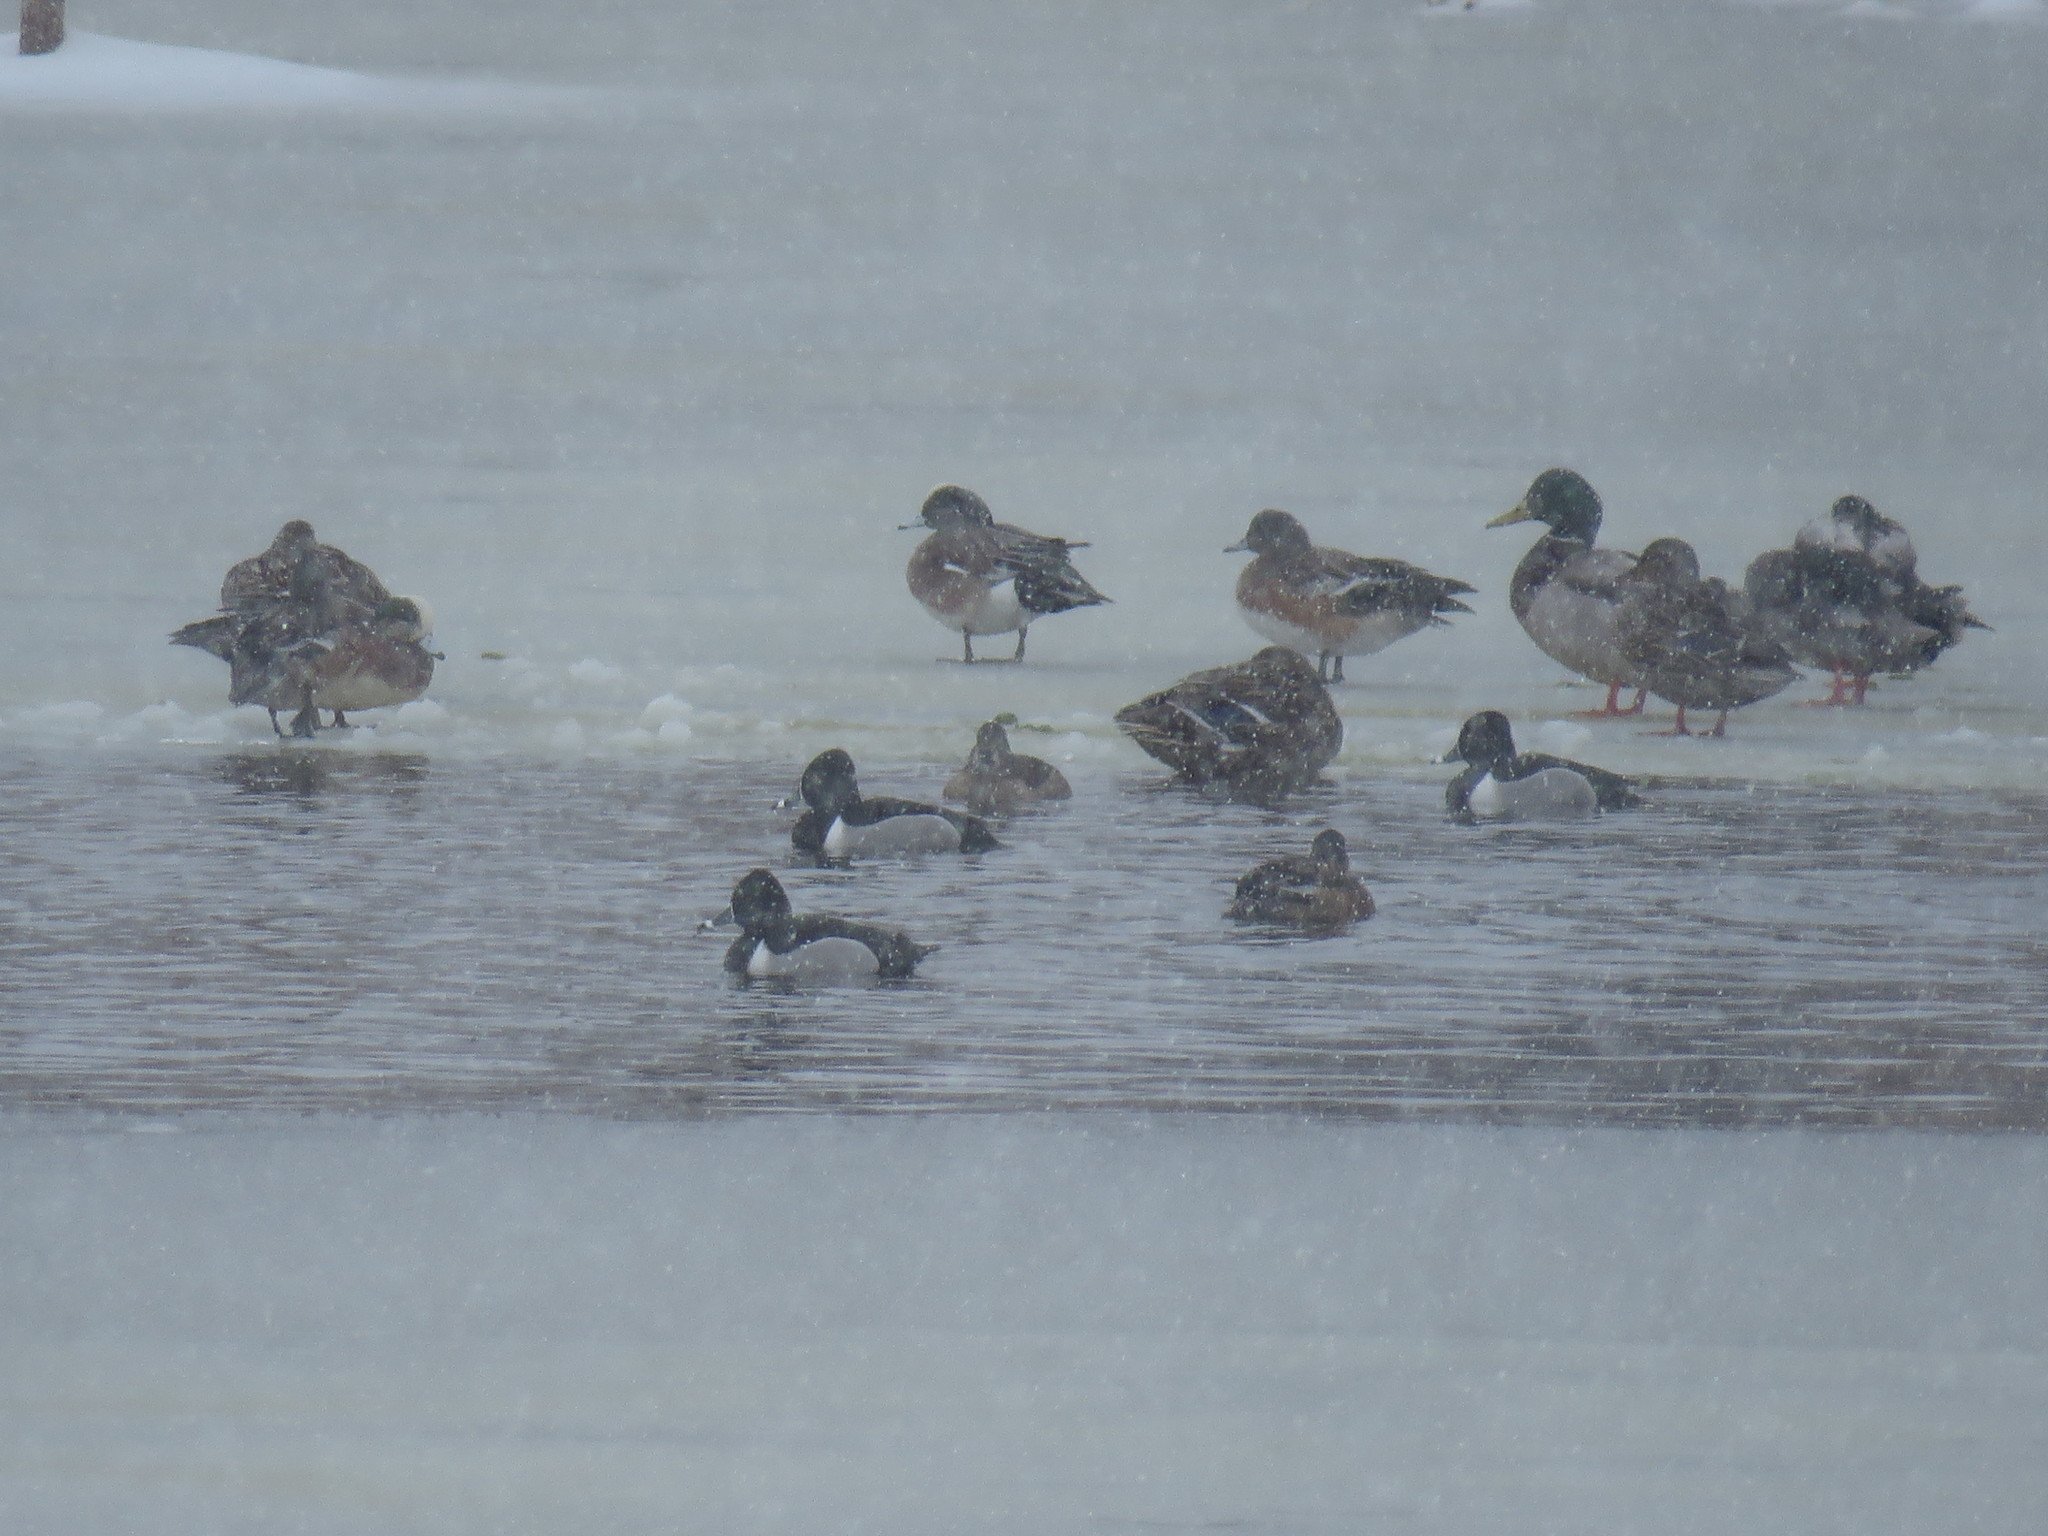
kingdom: Animalia
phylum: Chordata
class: Aves
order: Anseriformes
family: Anatidae
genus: Aythya
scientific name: Aythya collaris
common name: Ring-necked duck
